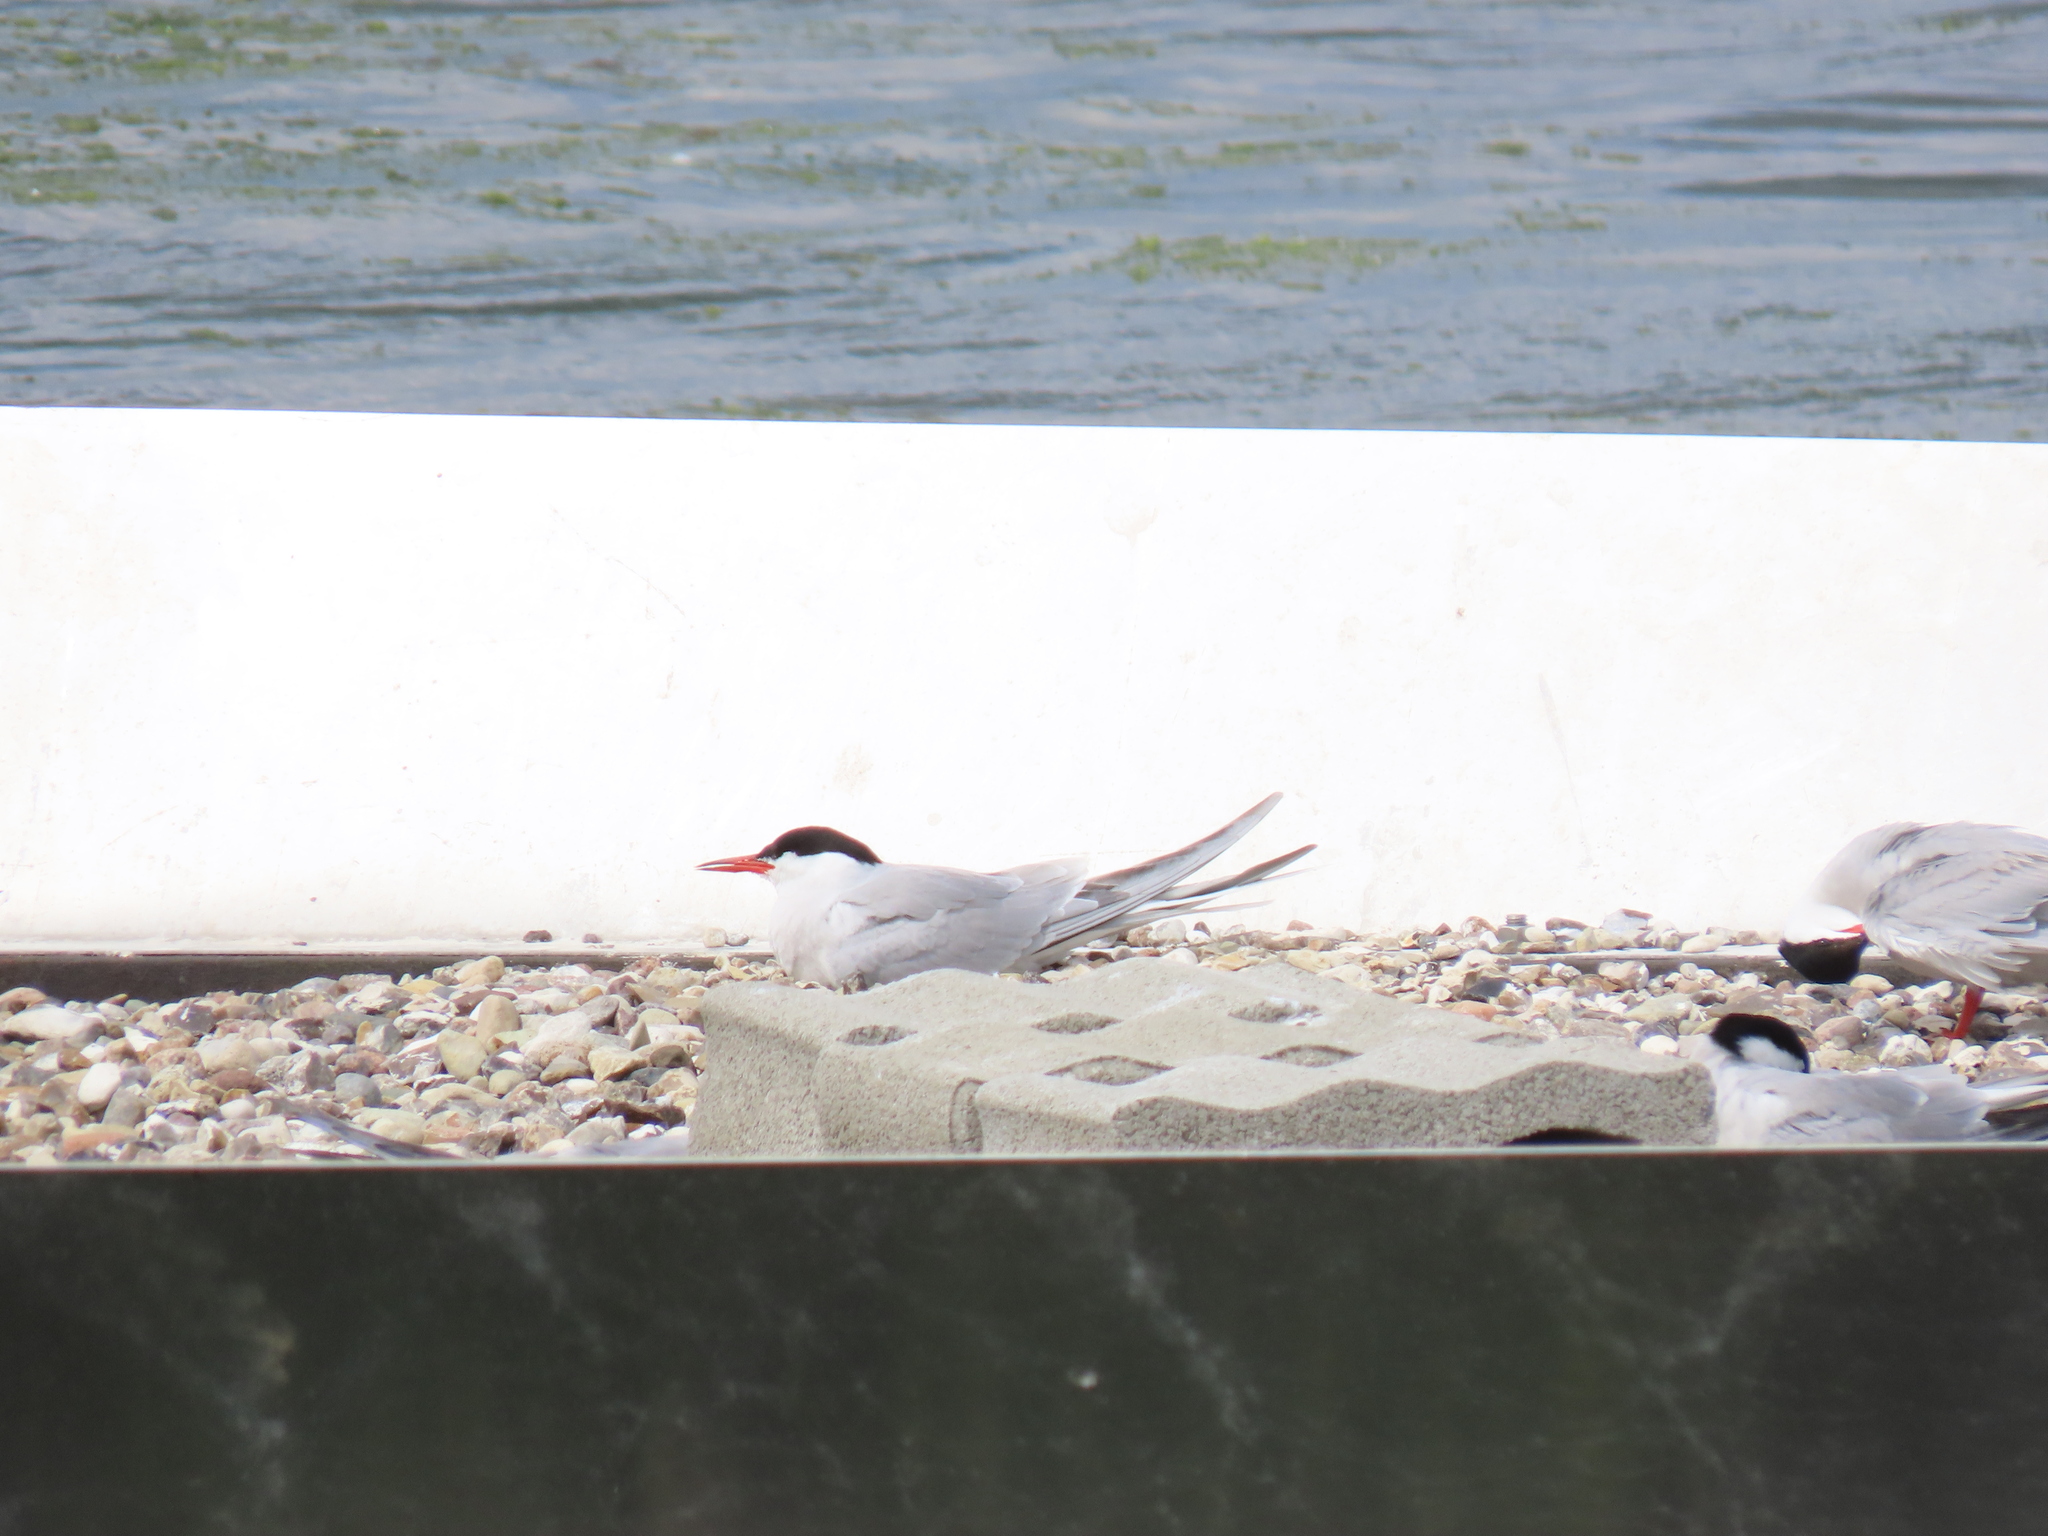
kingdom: Animalia
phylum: Chordata
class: Aves
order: Charadriiformes
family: Laridae
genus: Sterna
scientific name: Sterna hirundo
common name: Common tern
